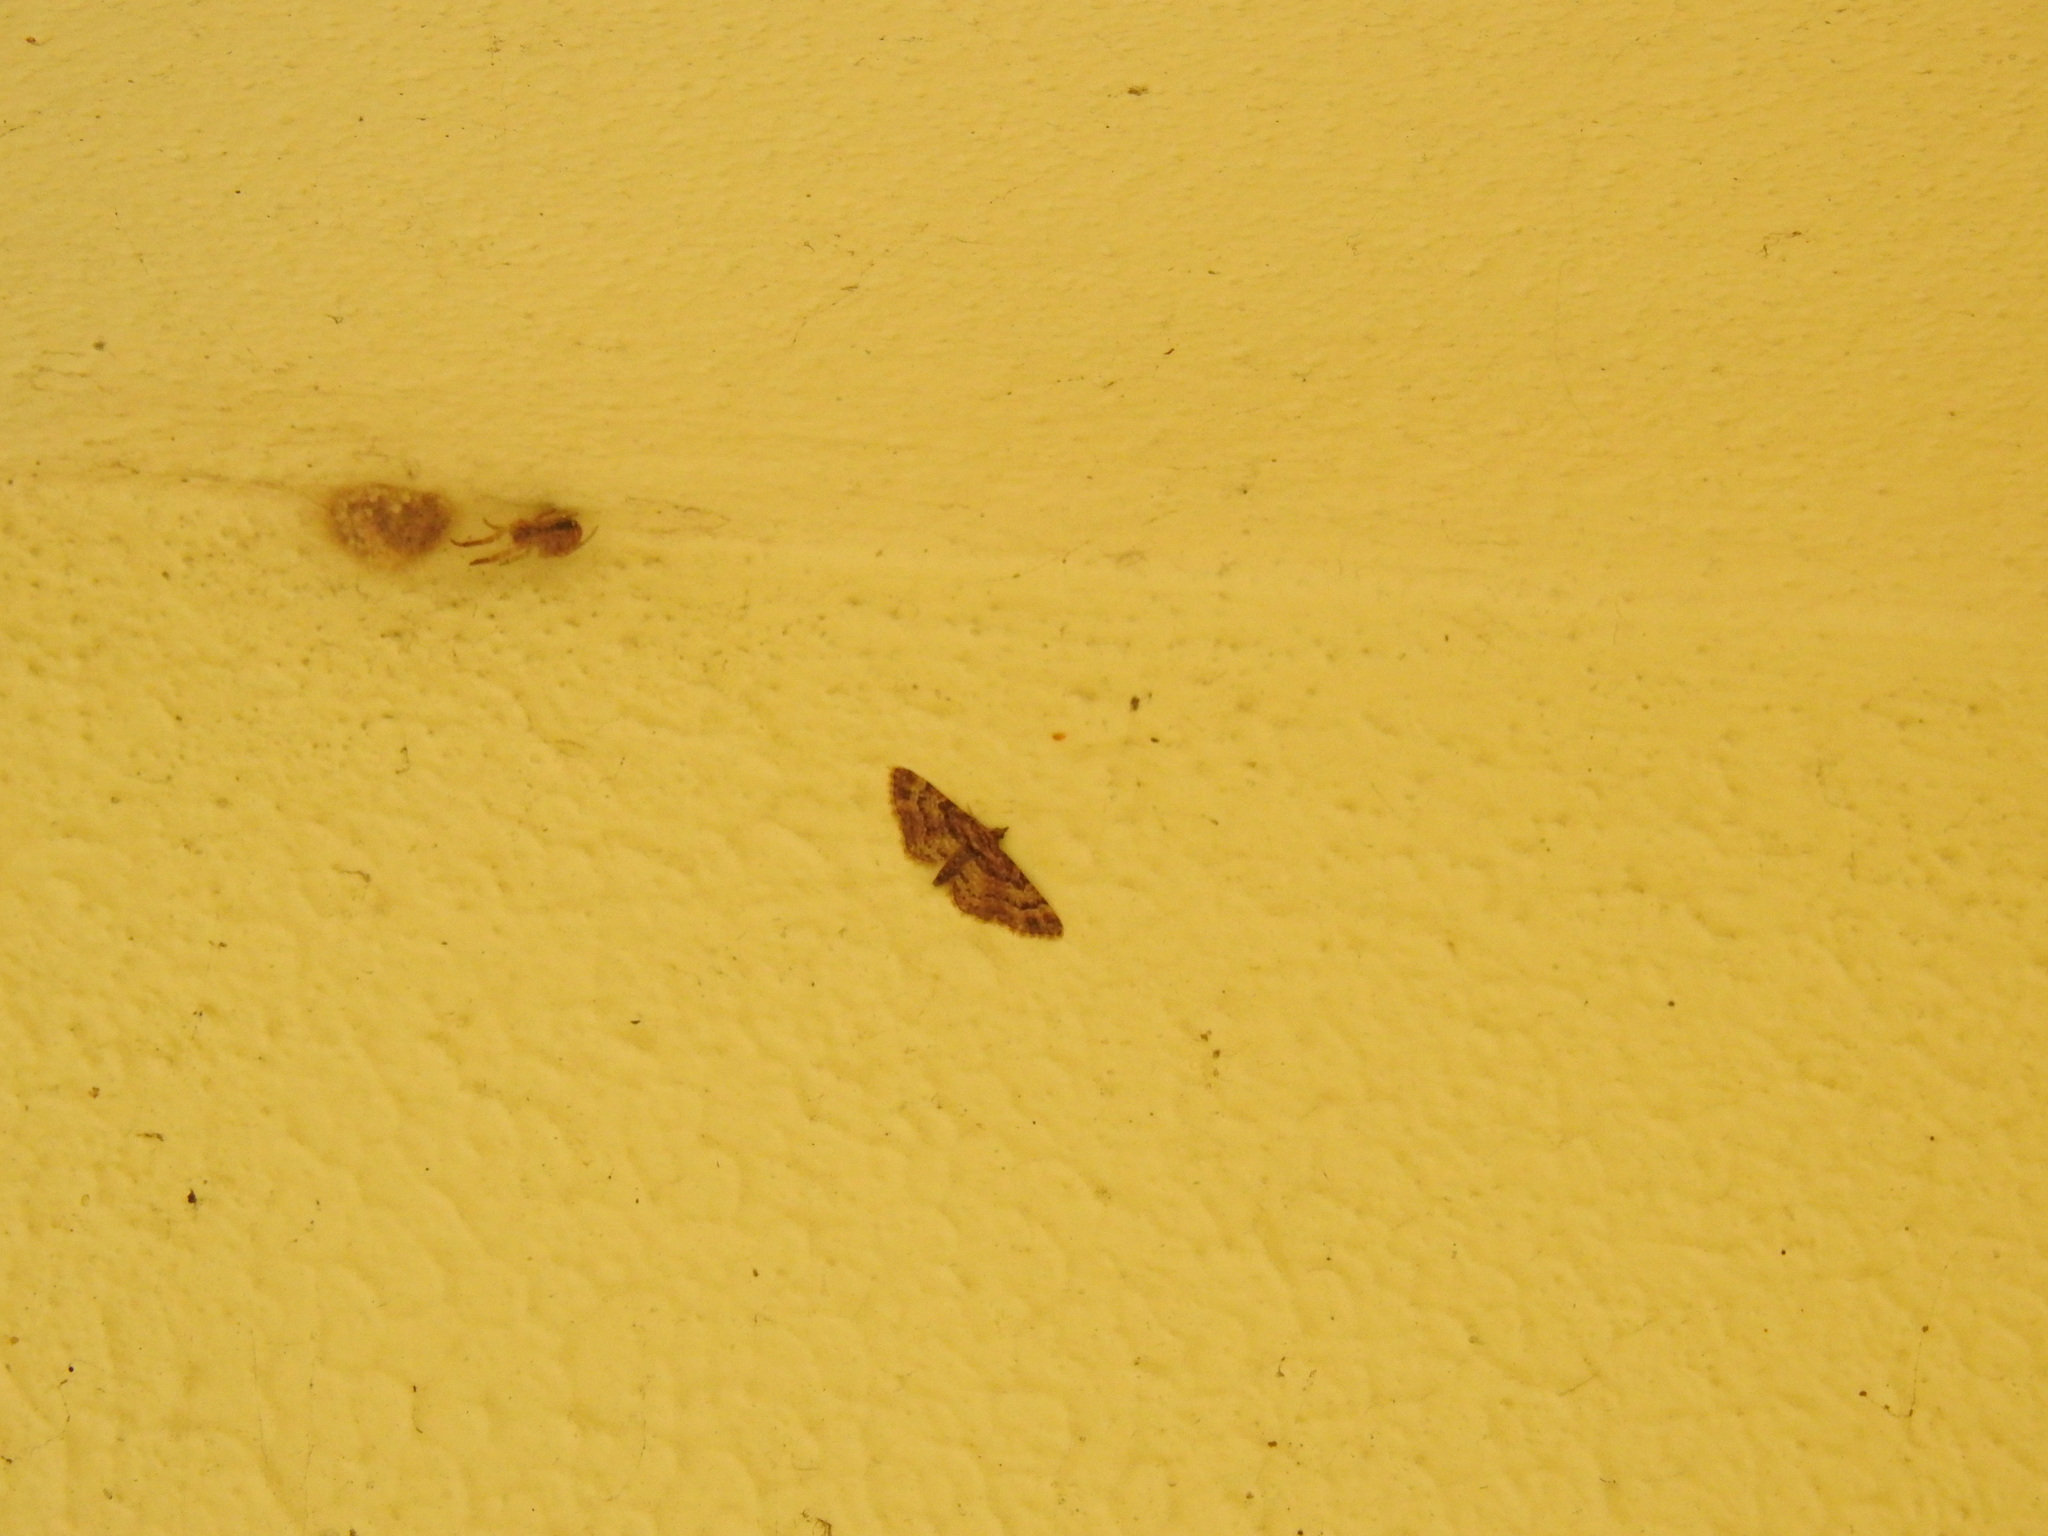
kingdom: Animalia
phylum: Arthropoda
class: Insecta
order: Lepidoptera
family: Geometridae
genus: Gymnoscelis
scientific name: Gymnoscelis rufifasciata
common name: Double-striped pug
